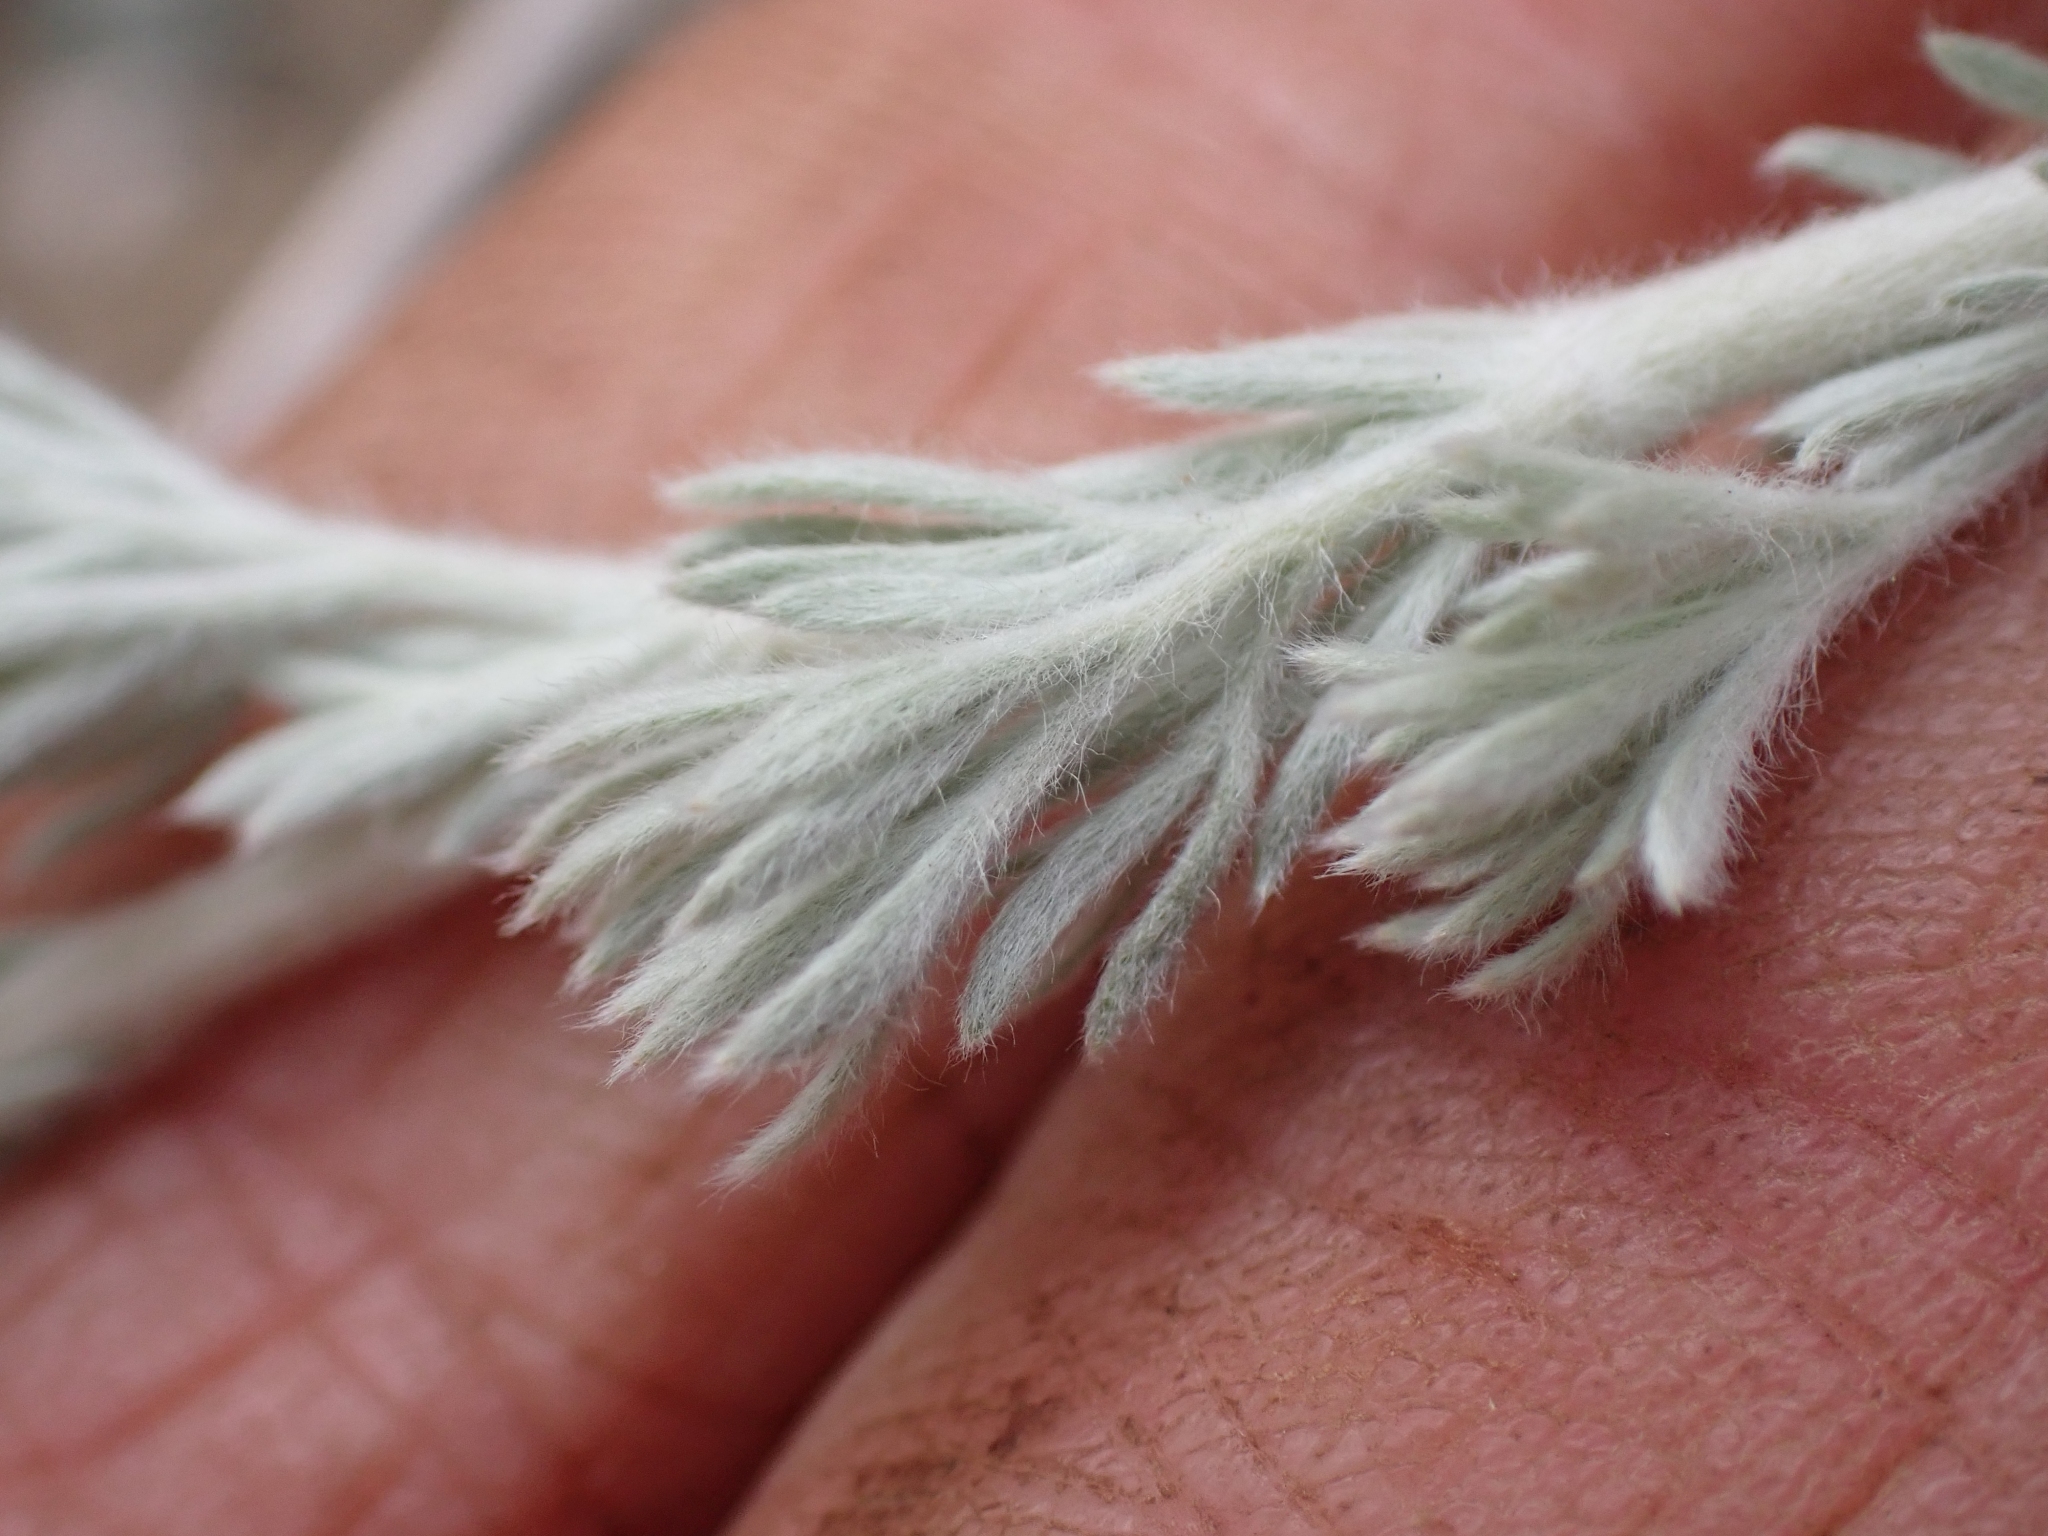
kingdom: Plantae
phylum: Tracheophyta
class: Magnoliopsida
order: Asterales
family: Asteraceae
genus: Artemisia
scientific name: Artemisia frigida
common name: Prairie sagewort
